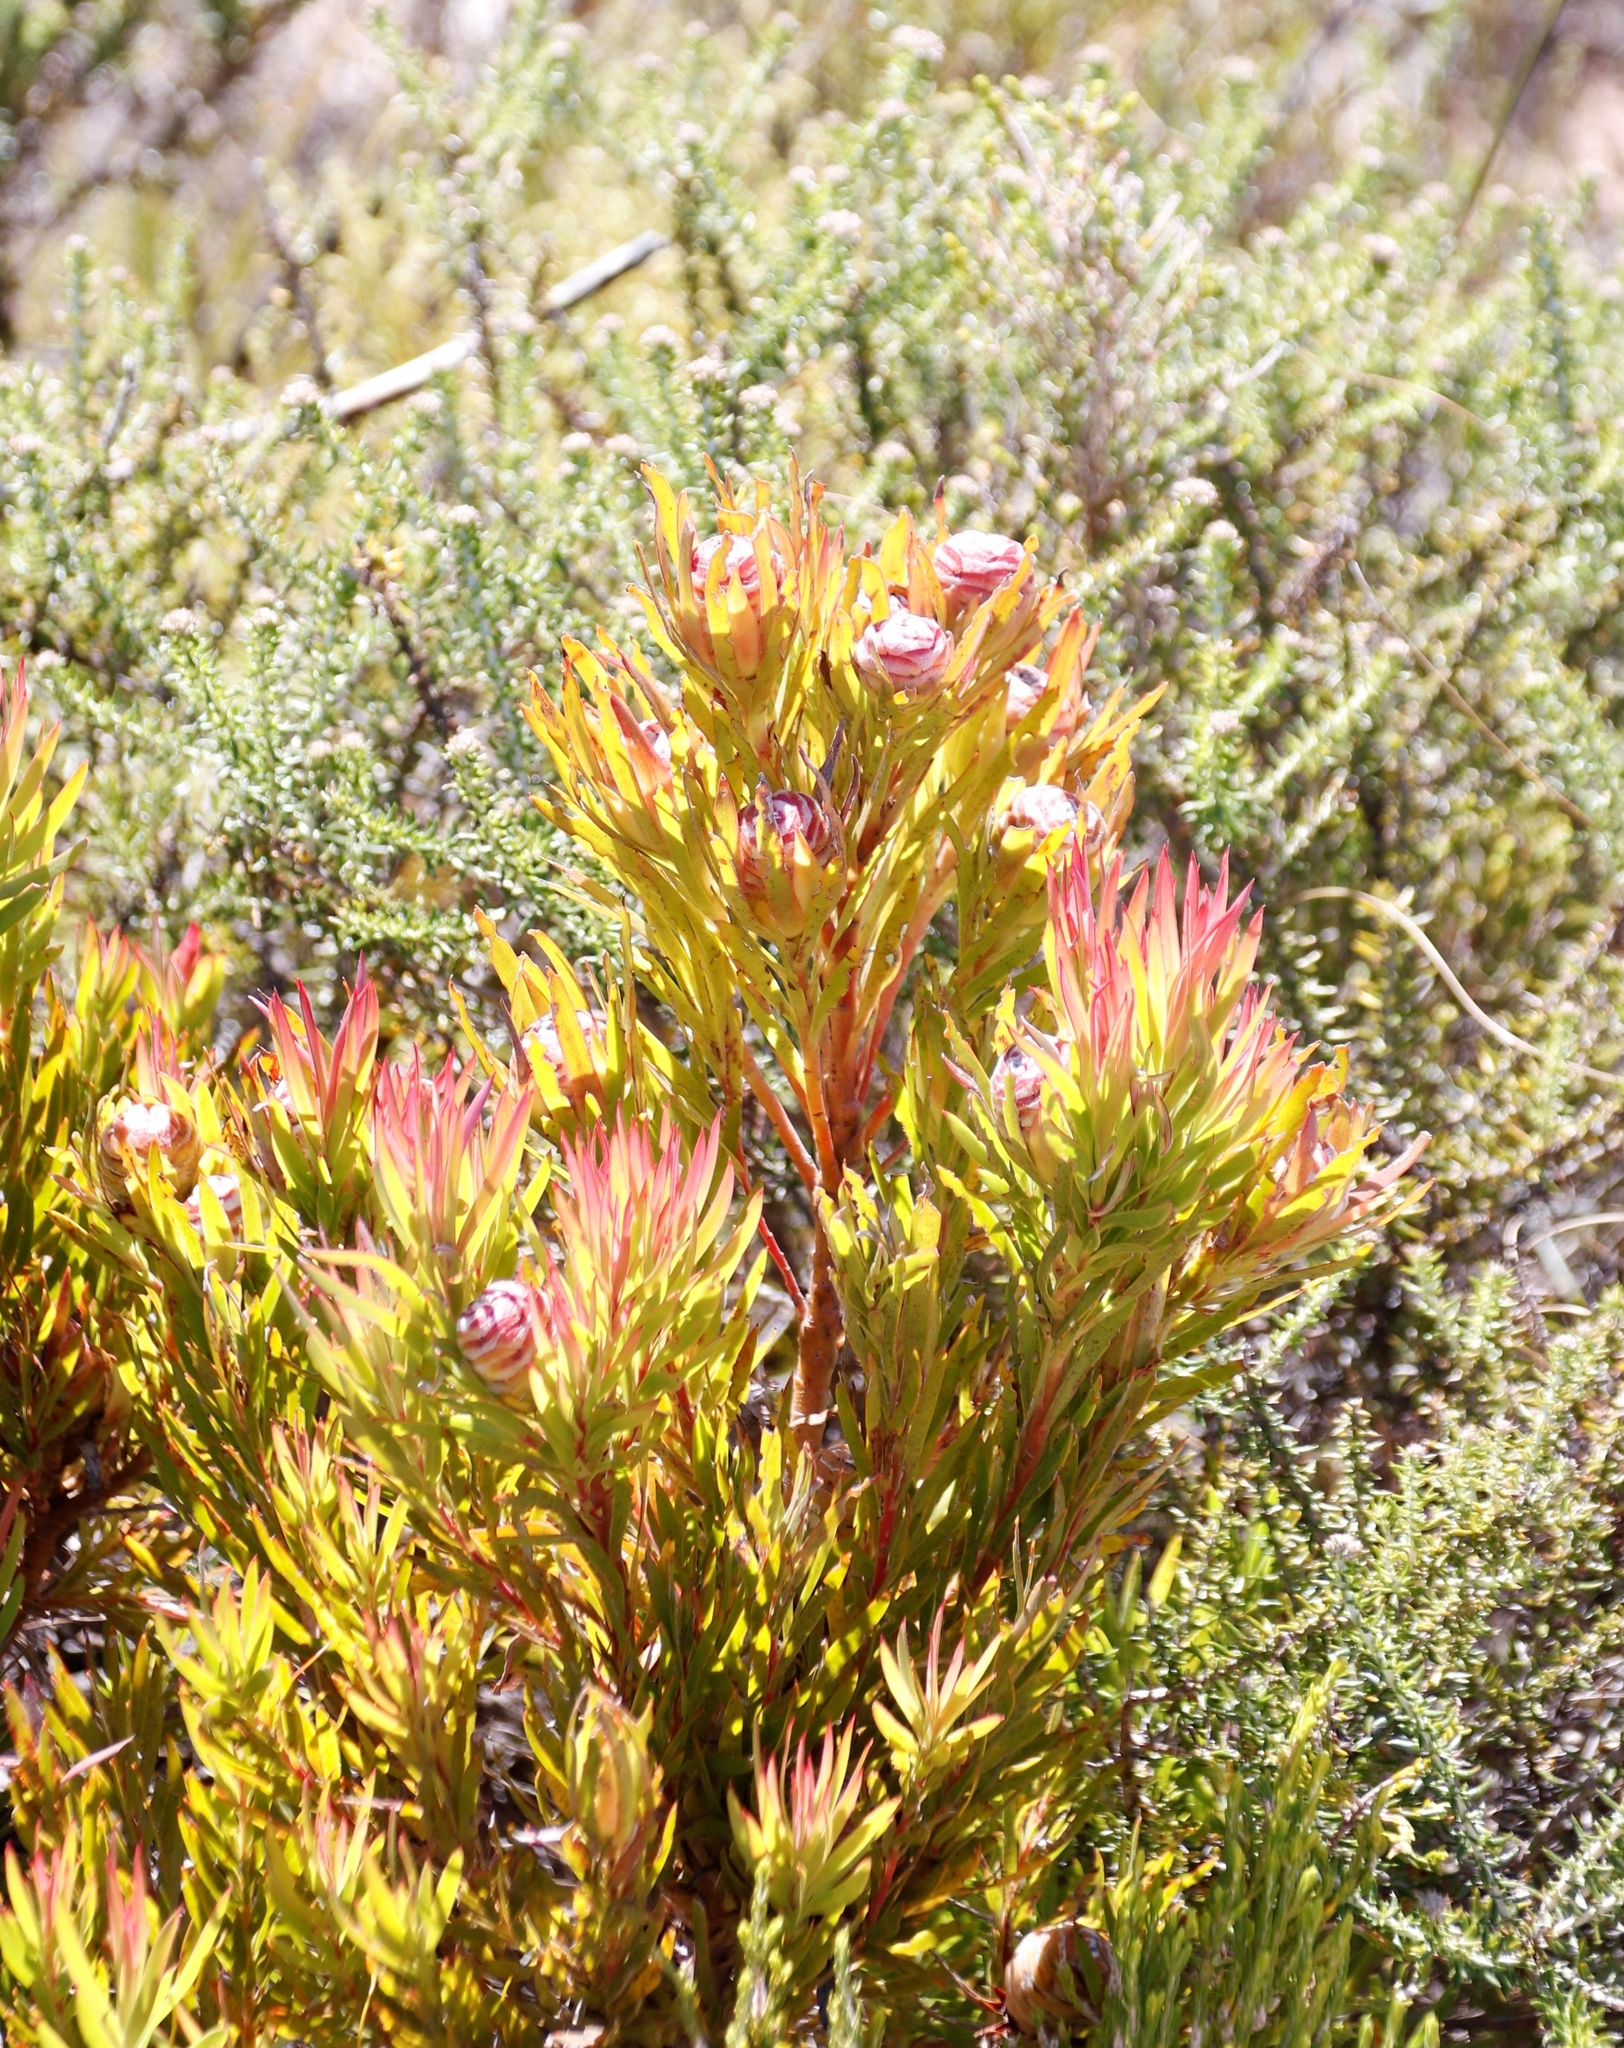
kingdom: Plantae
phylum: Tracheophyta
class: Magnoliopsida
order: Proteales
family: Proteaceae
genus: Leucadendron
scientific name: Leucadendron xanthoconus
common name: Sickle-leaf conebush
